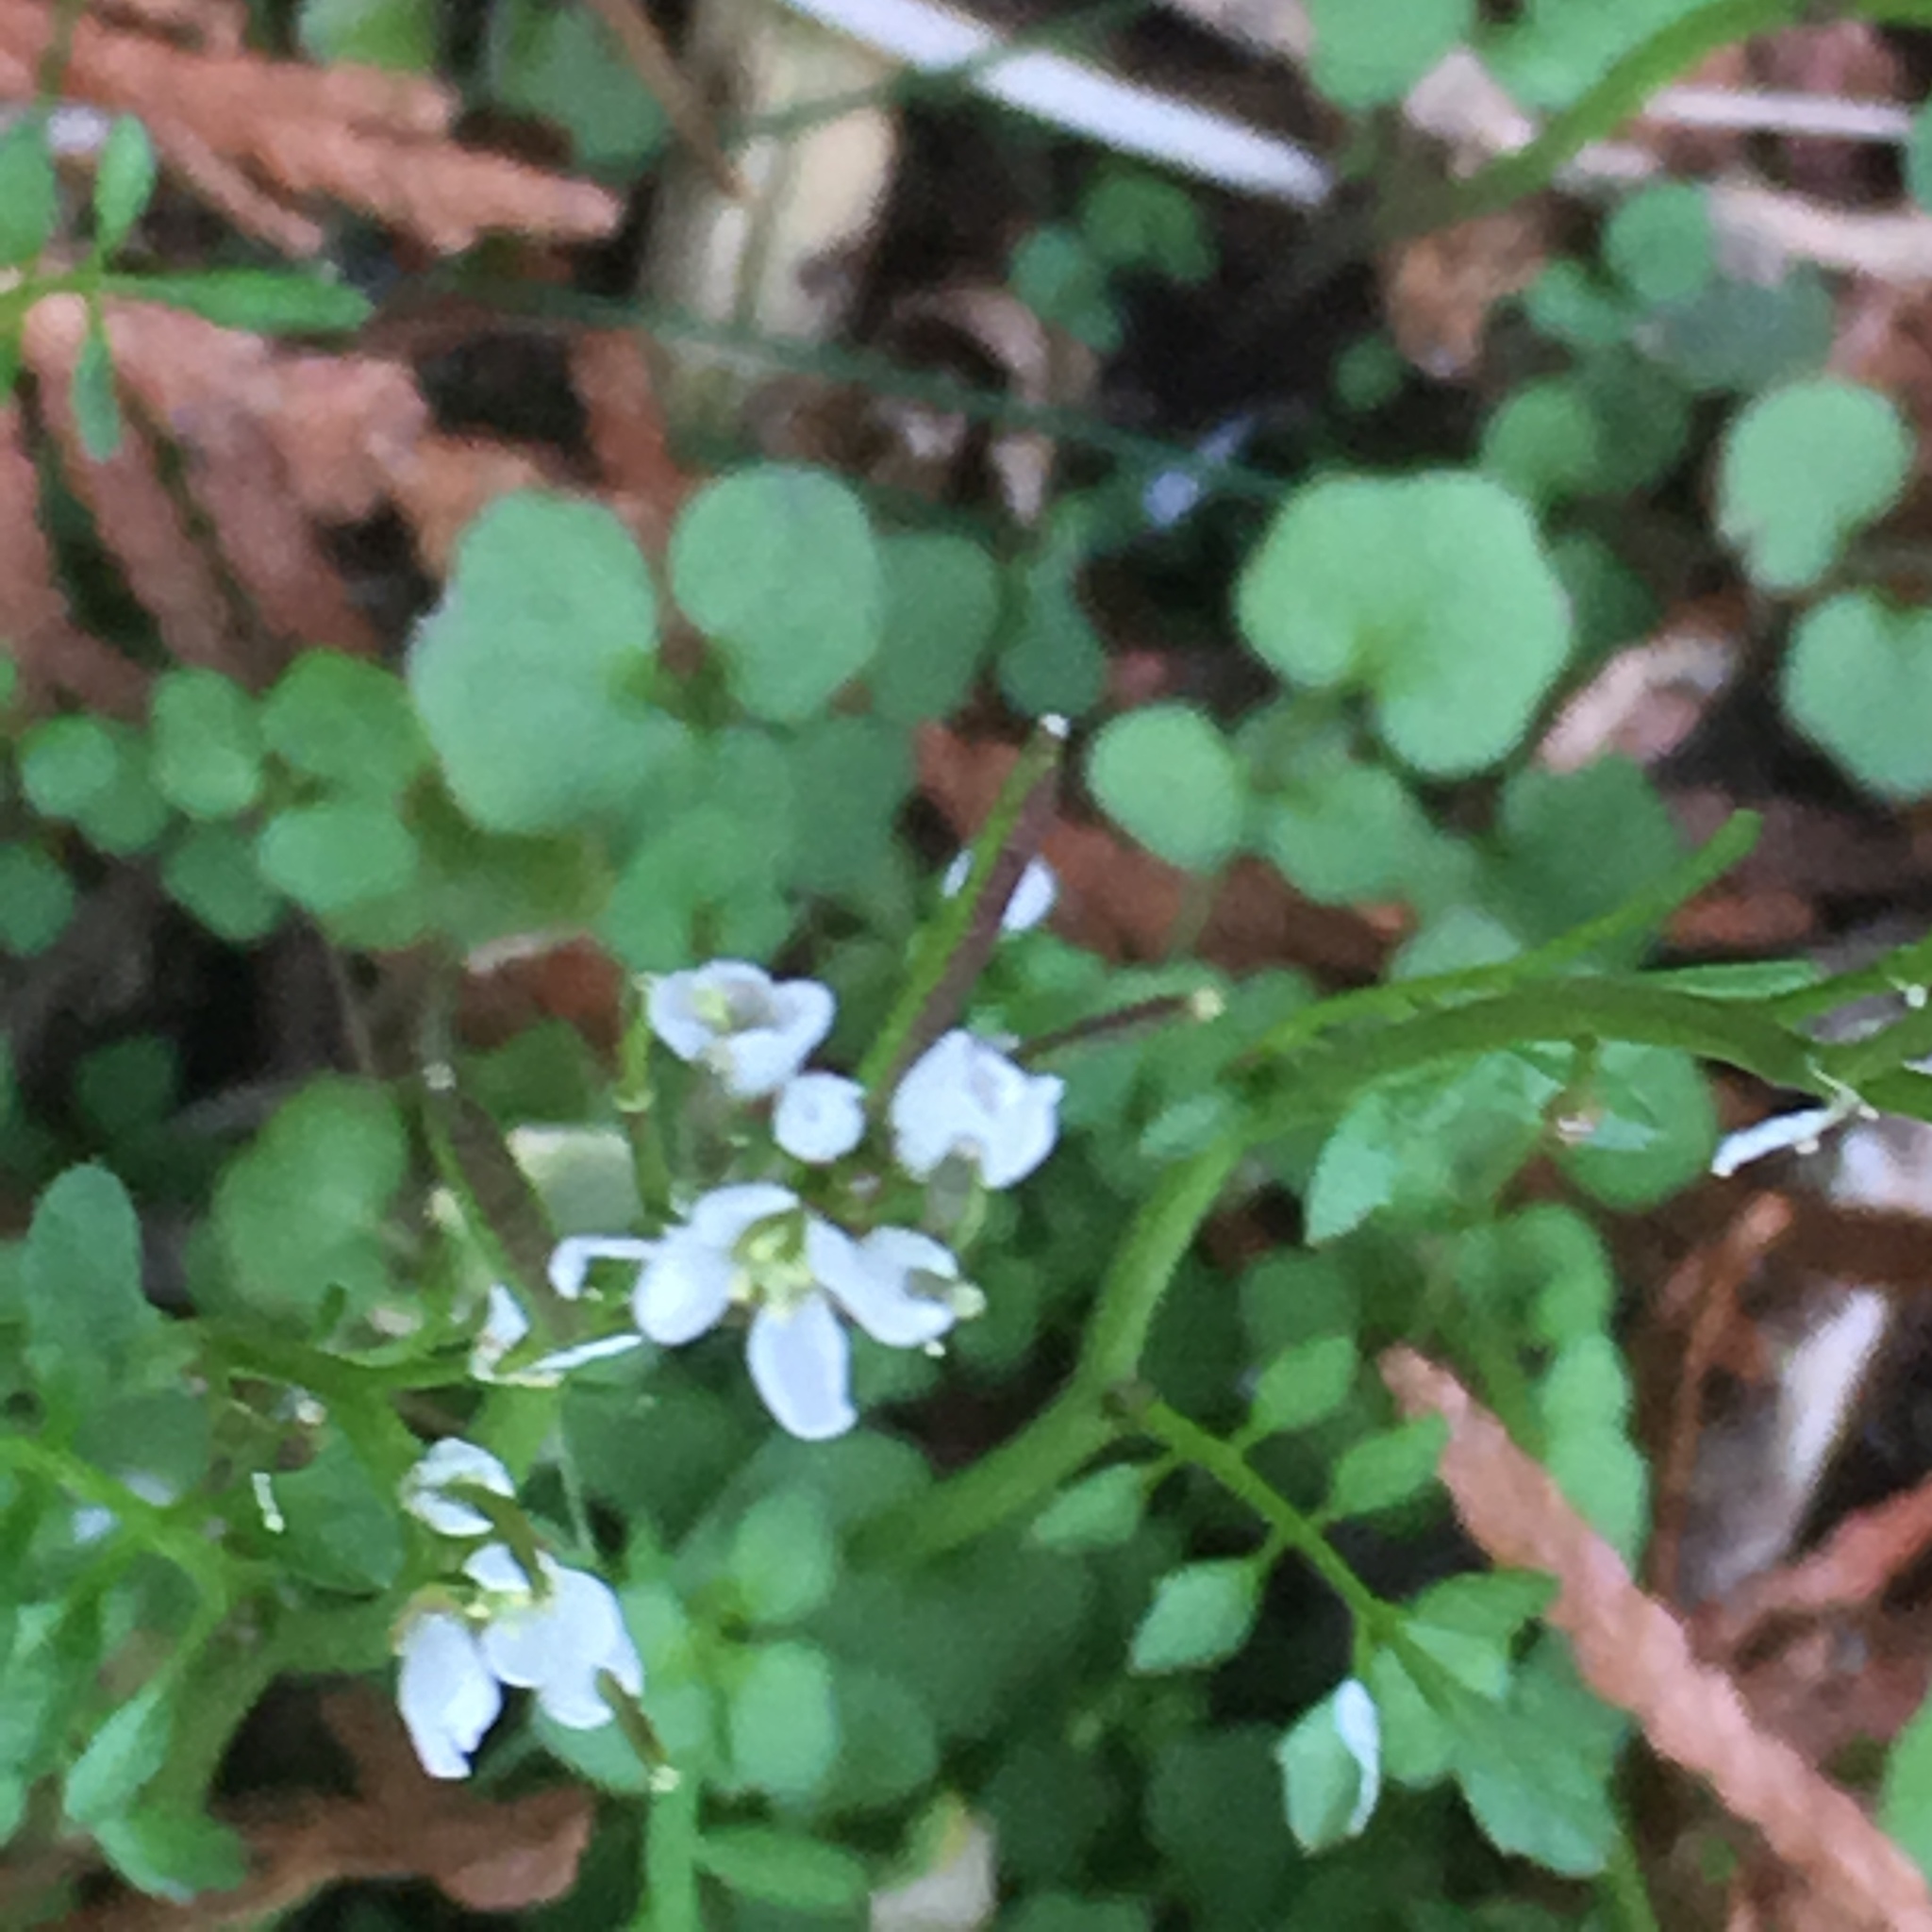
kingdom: Plantae
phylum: Tracheophyta
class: Magnoliopsida
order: Brassicales
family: Brassicaceae
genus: Cardamine
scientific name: Cardamine hirsuta
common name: Hairy bittercress
